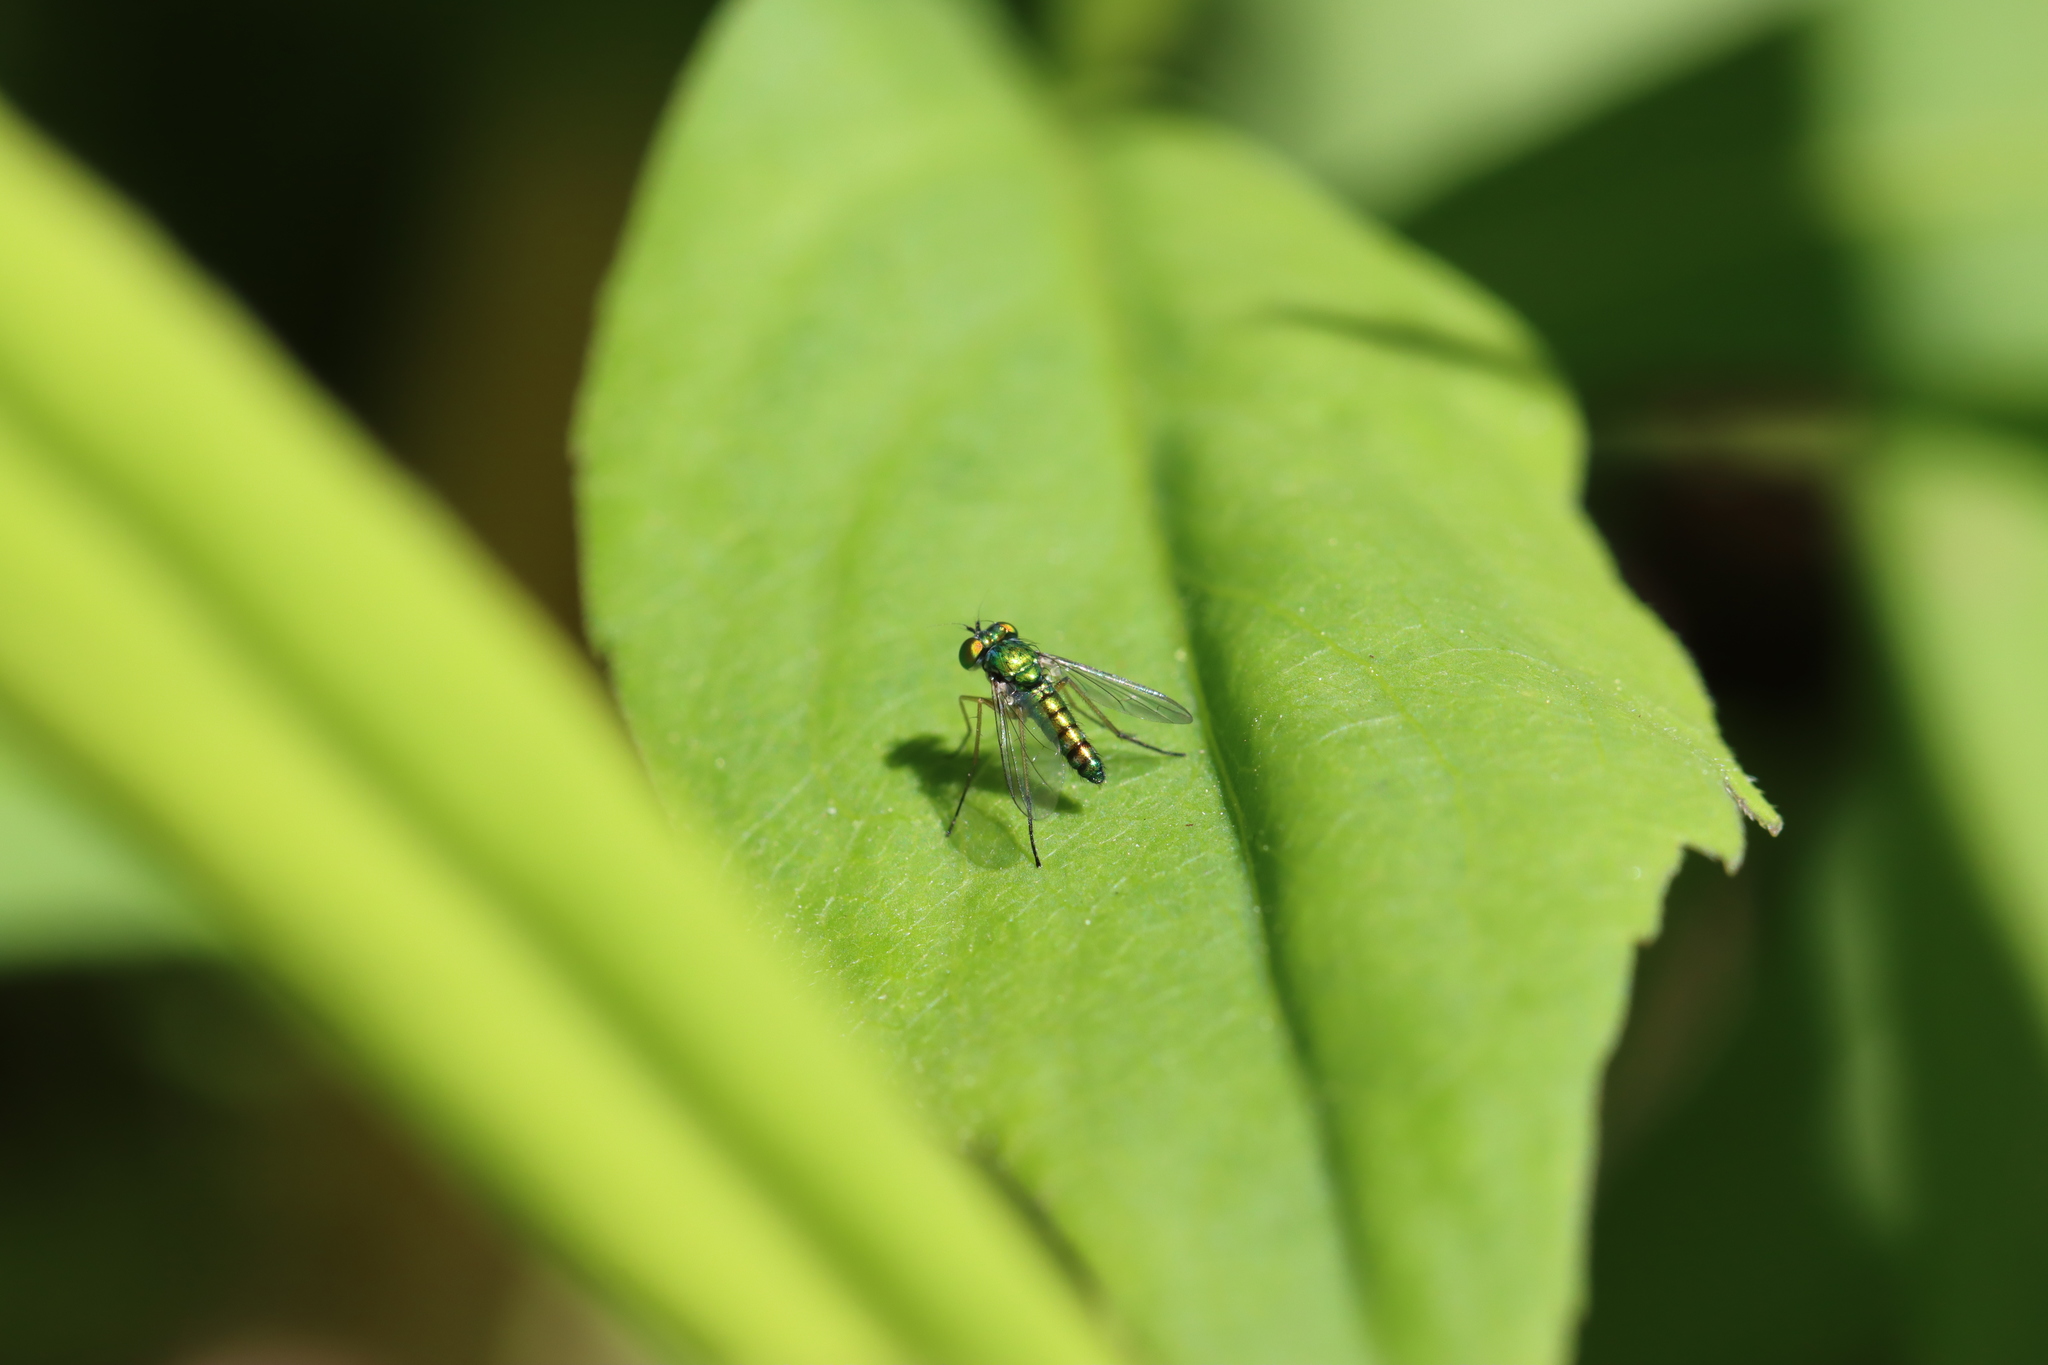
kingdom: Animalia
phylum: Arthropoda
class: Insecta
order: Diptera
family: Dolichopodidae
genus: Condylostylus
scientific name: Condylostylus flavipes
